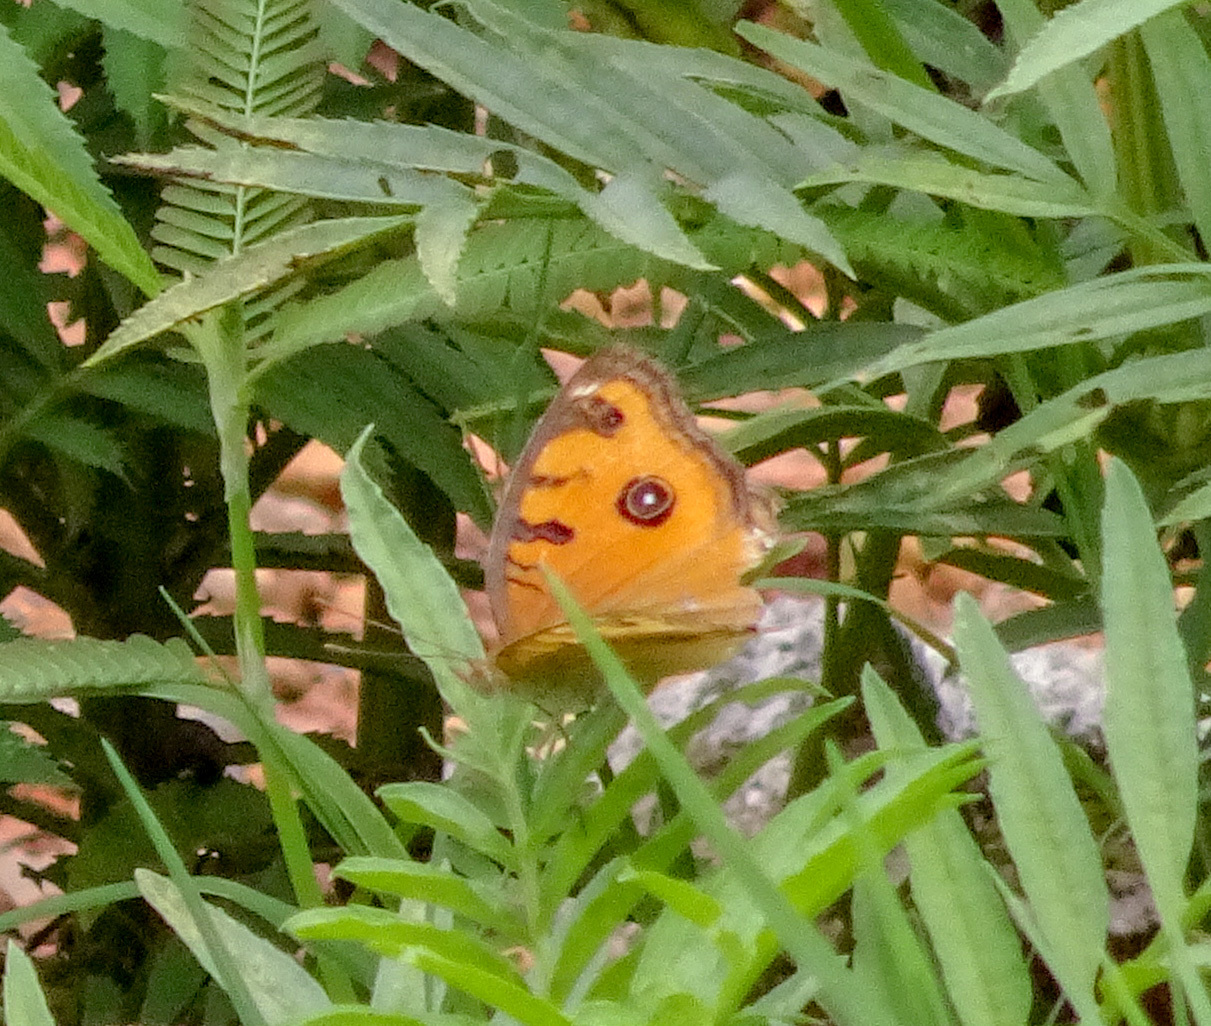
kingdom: Animalia
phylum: Arthropoda
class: Insecta
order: Lepidoptera
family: Nymphalidae
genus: Junonia
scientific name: Junonia almana
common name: Peacock pansy
